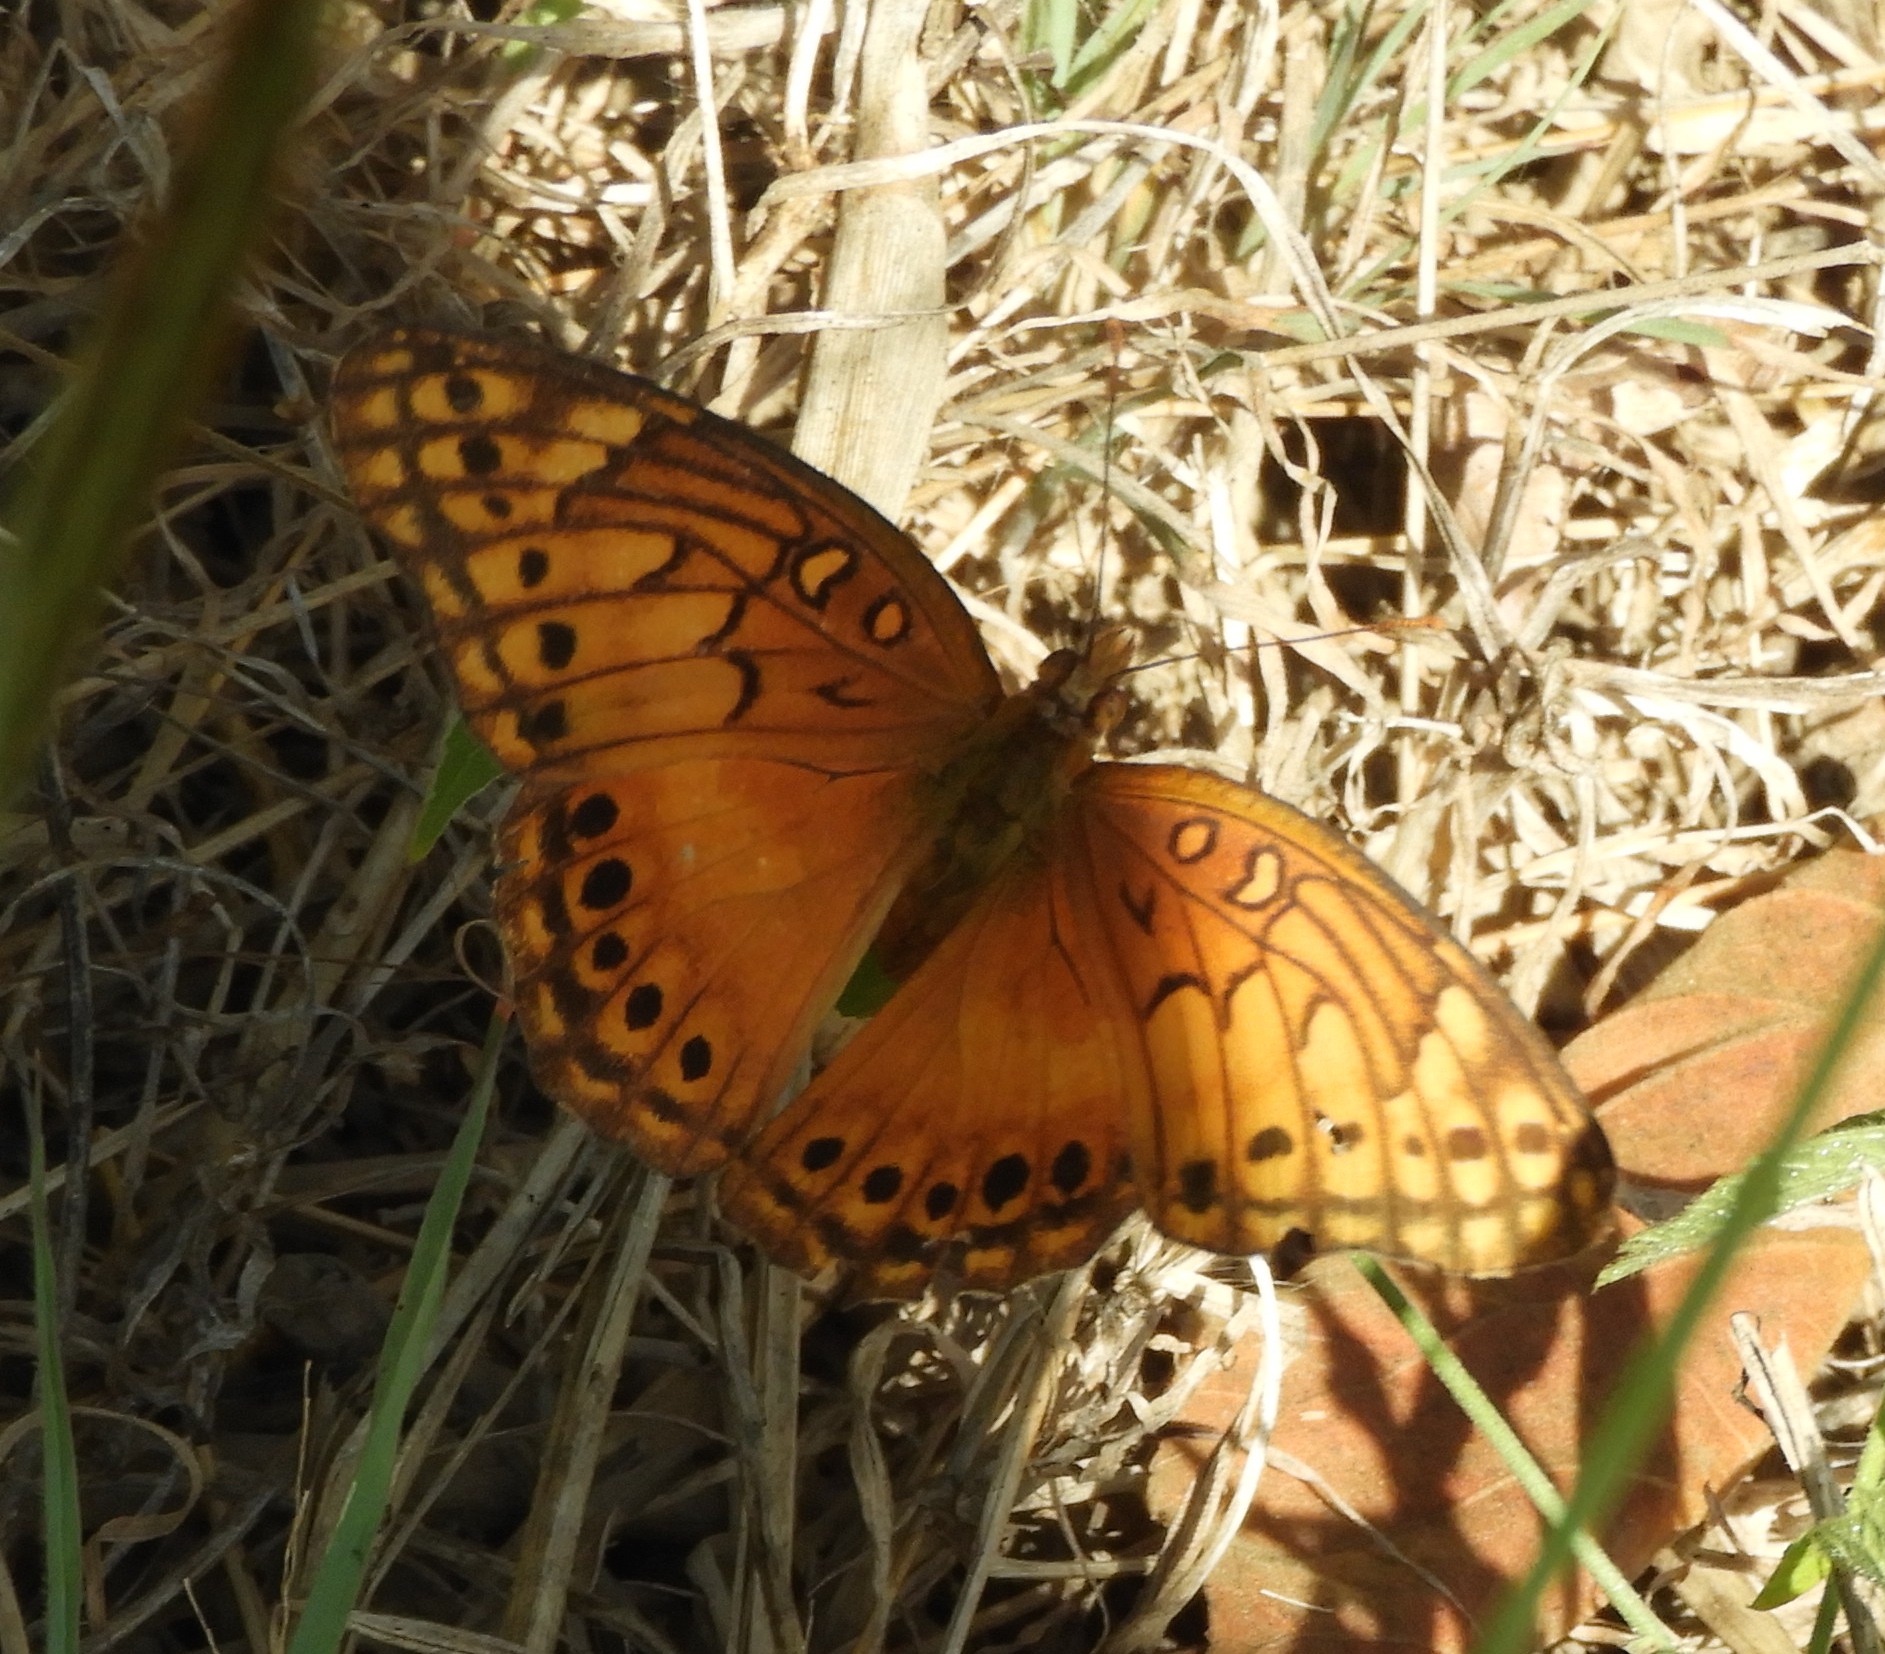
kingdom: Animalia
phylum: Arthropoda
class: Insecta
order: Lepidoptera
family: Nymphalidae
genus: Euptoieta
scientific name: Euptoieta hegesia
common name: Mexican fritillary
